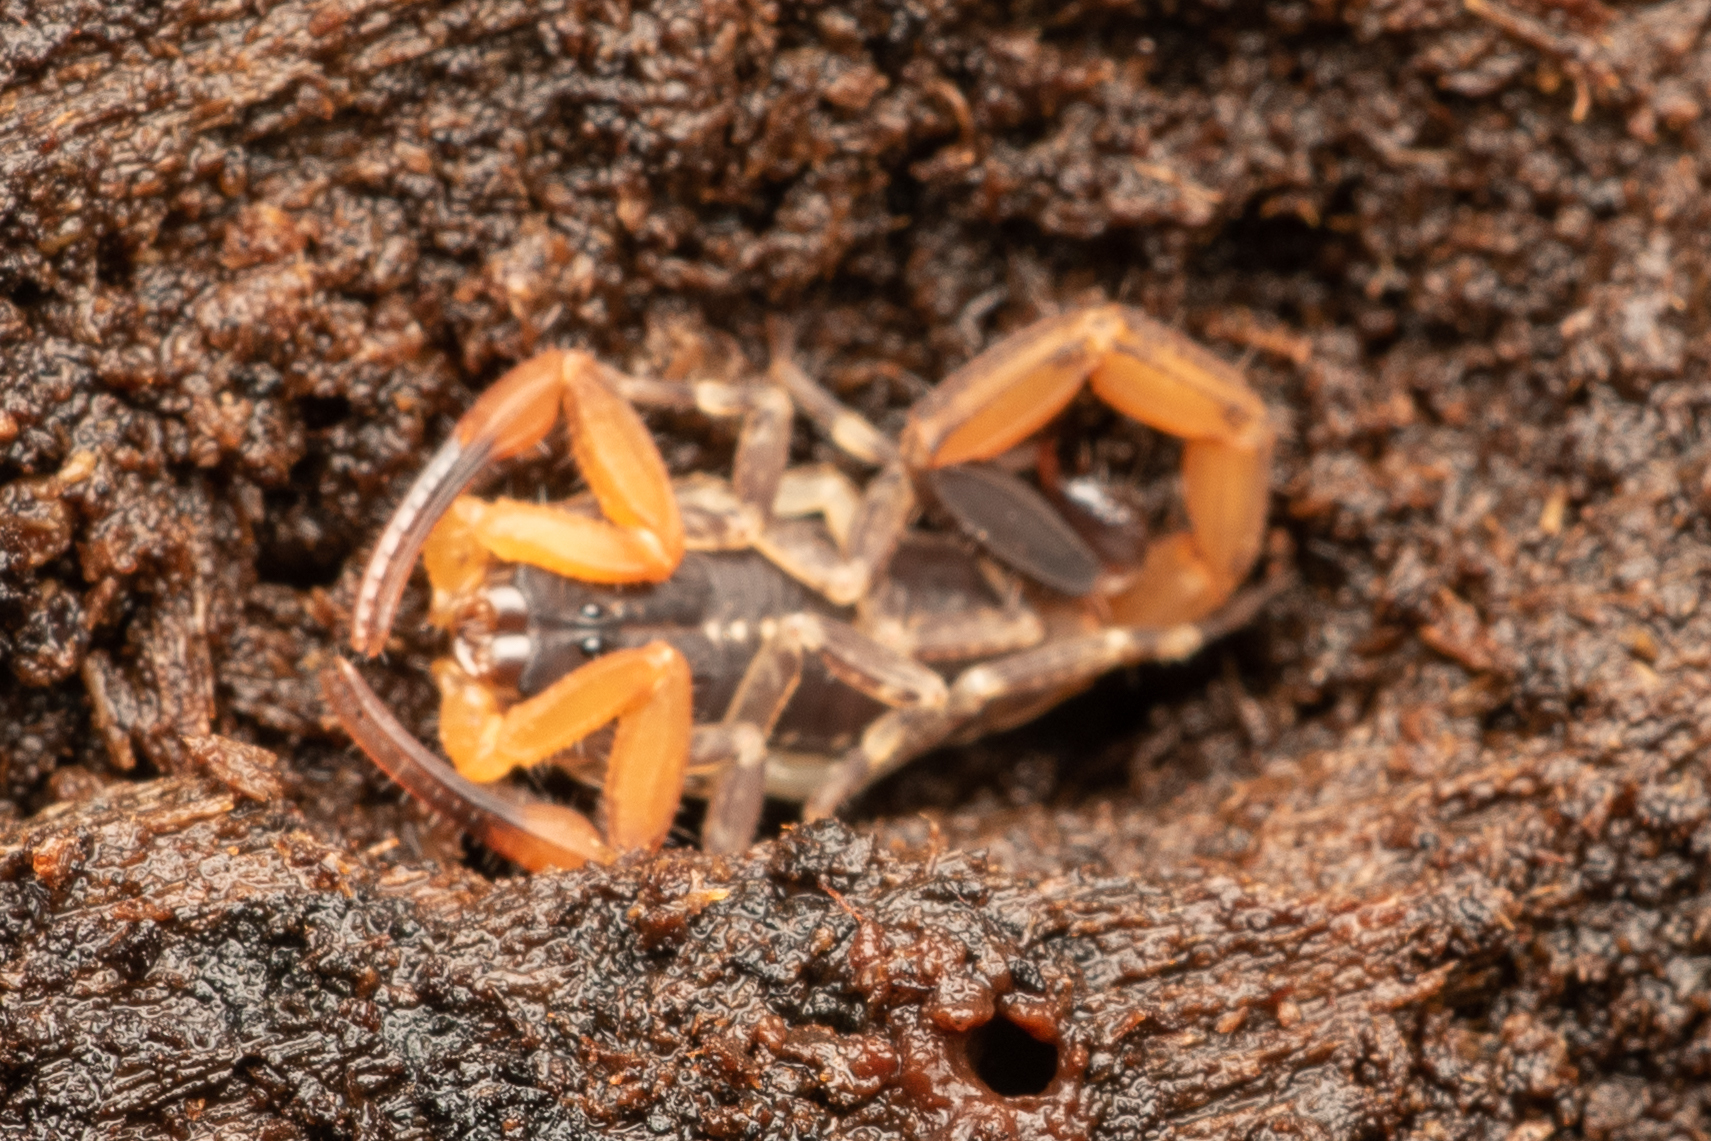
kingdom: Animalia
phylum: Arthropoda
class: Arachnida
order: Scorpiones
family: Buthidae
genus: Centruroides
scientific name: Centruroides bicolor
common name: Scorpions
